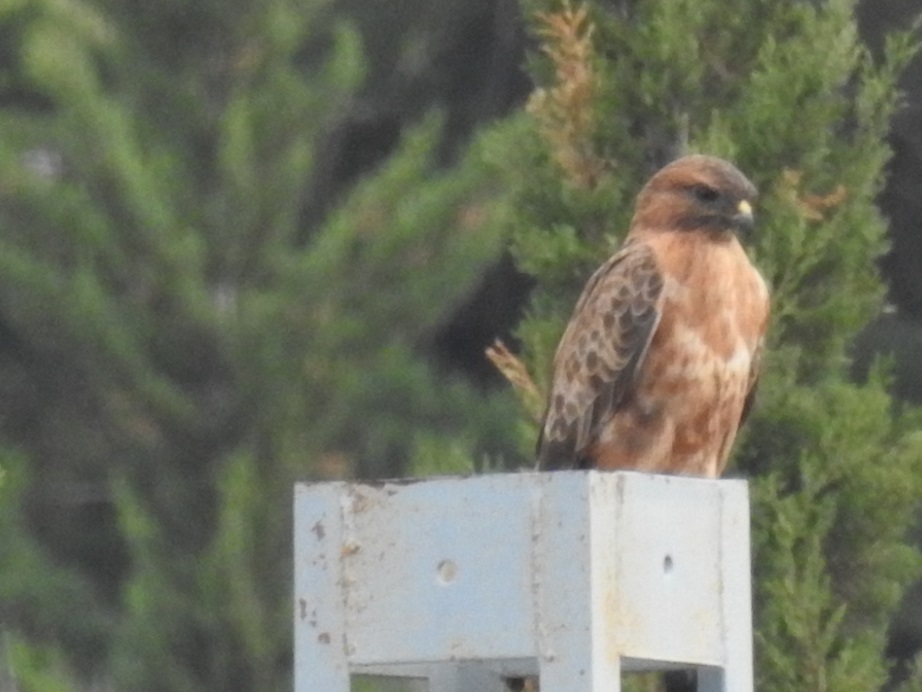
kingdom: Animalia
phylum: Chordata
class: Aves
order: Accipitriformes
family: Accipitridae
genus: Buteo
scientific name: Buteo rufinus
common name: Long-legged buzzard
